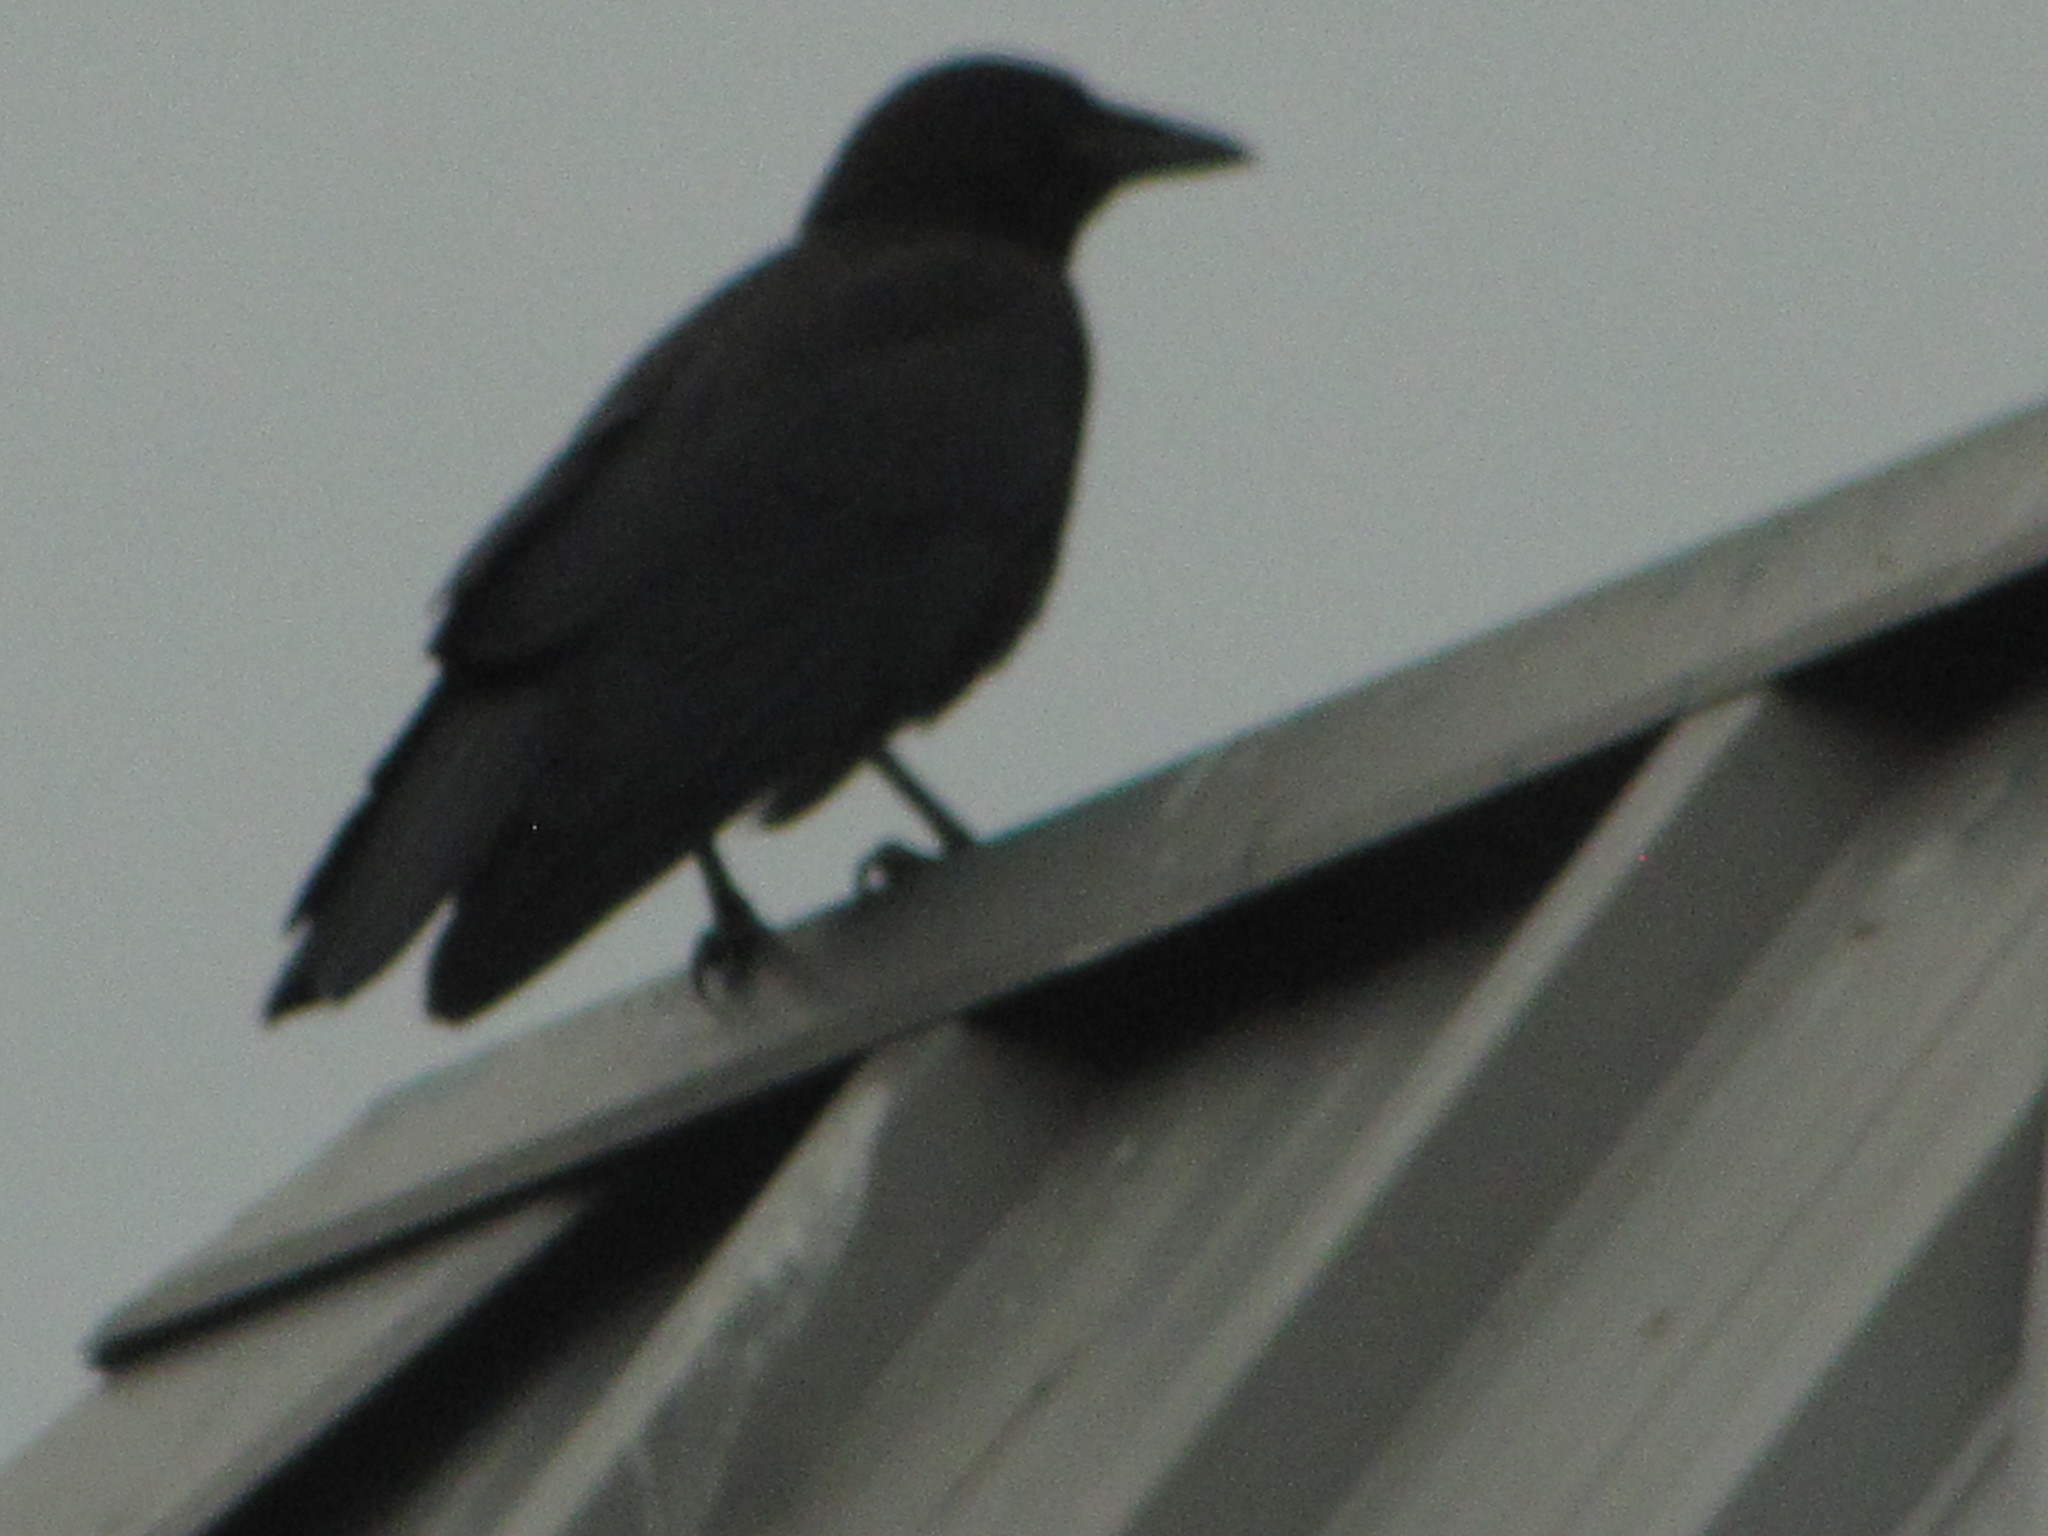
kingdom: Animalia
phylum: Chordata
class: Aves
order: Passeriformes
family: Corvidae
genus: Corvus
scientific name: Corvus brachyrhynchos
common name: American crow
